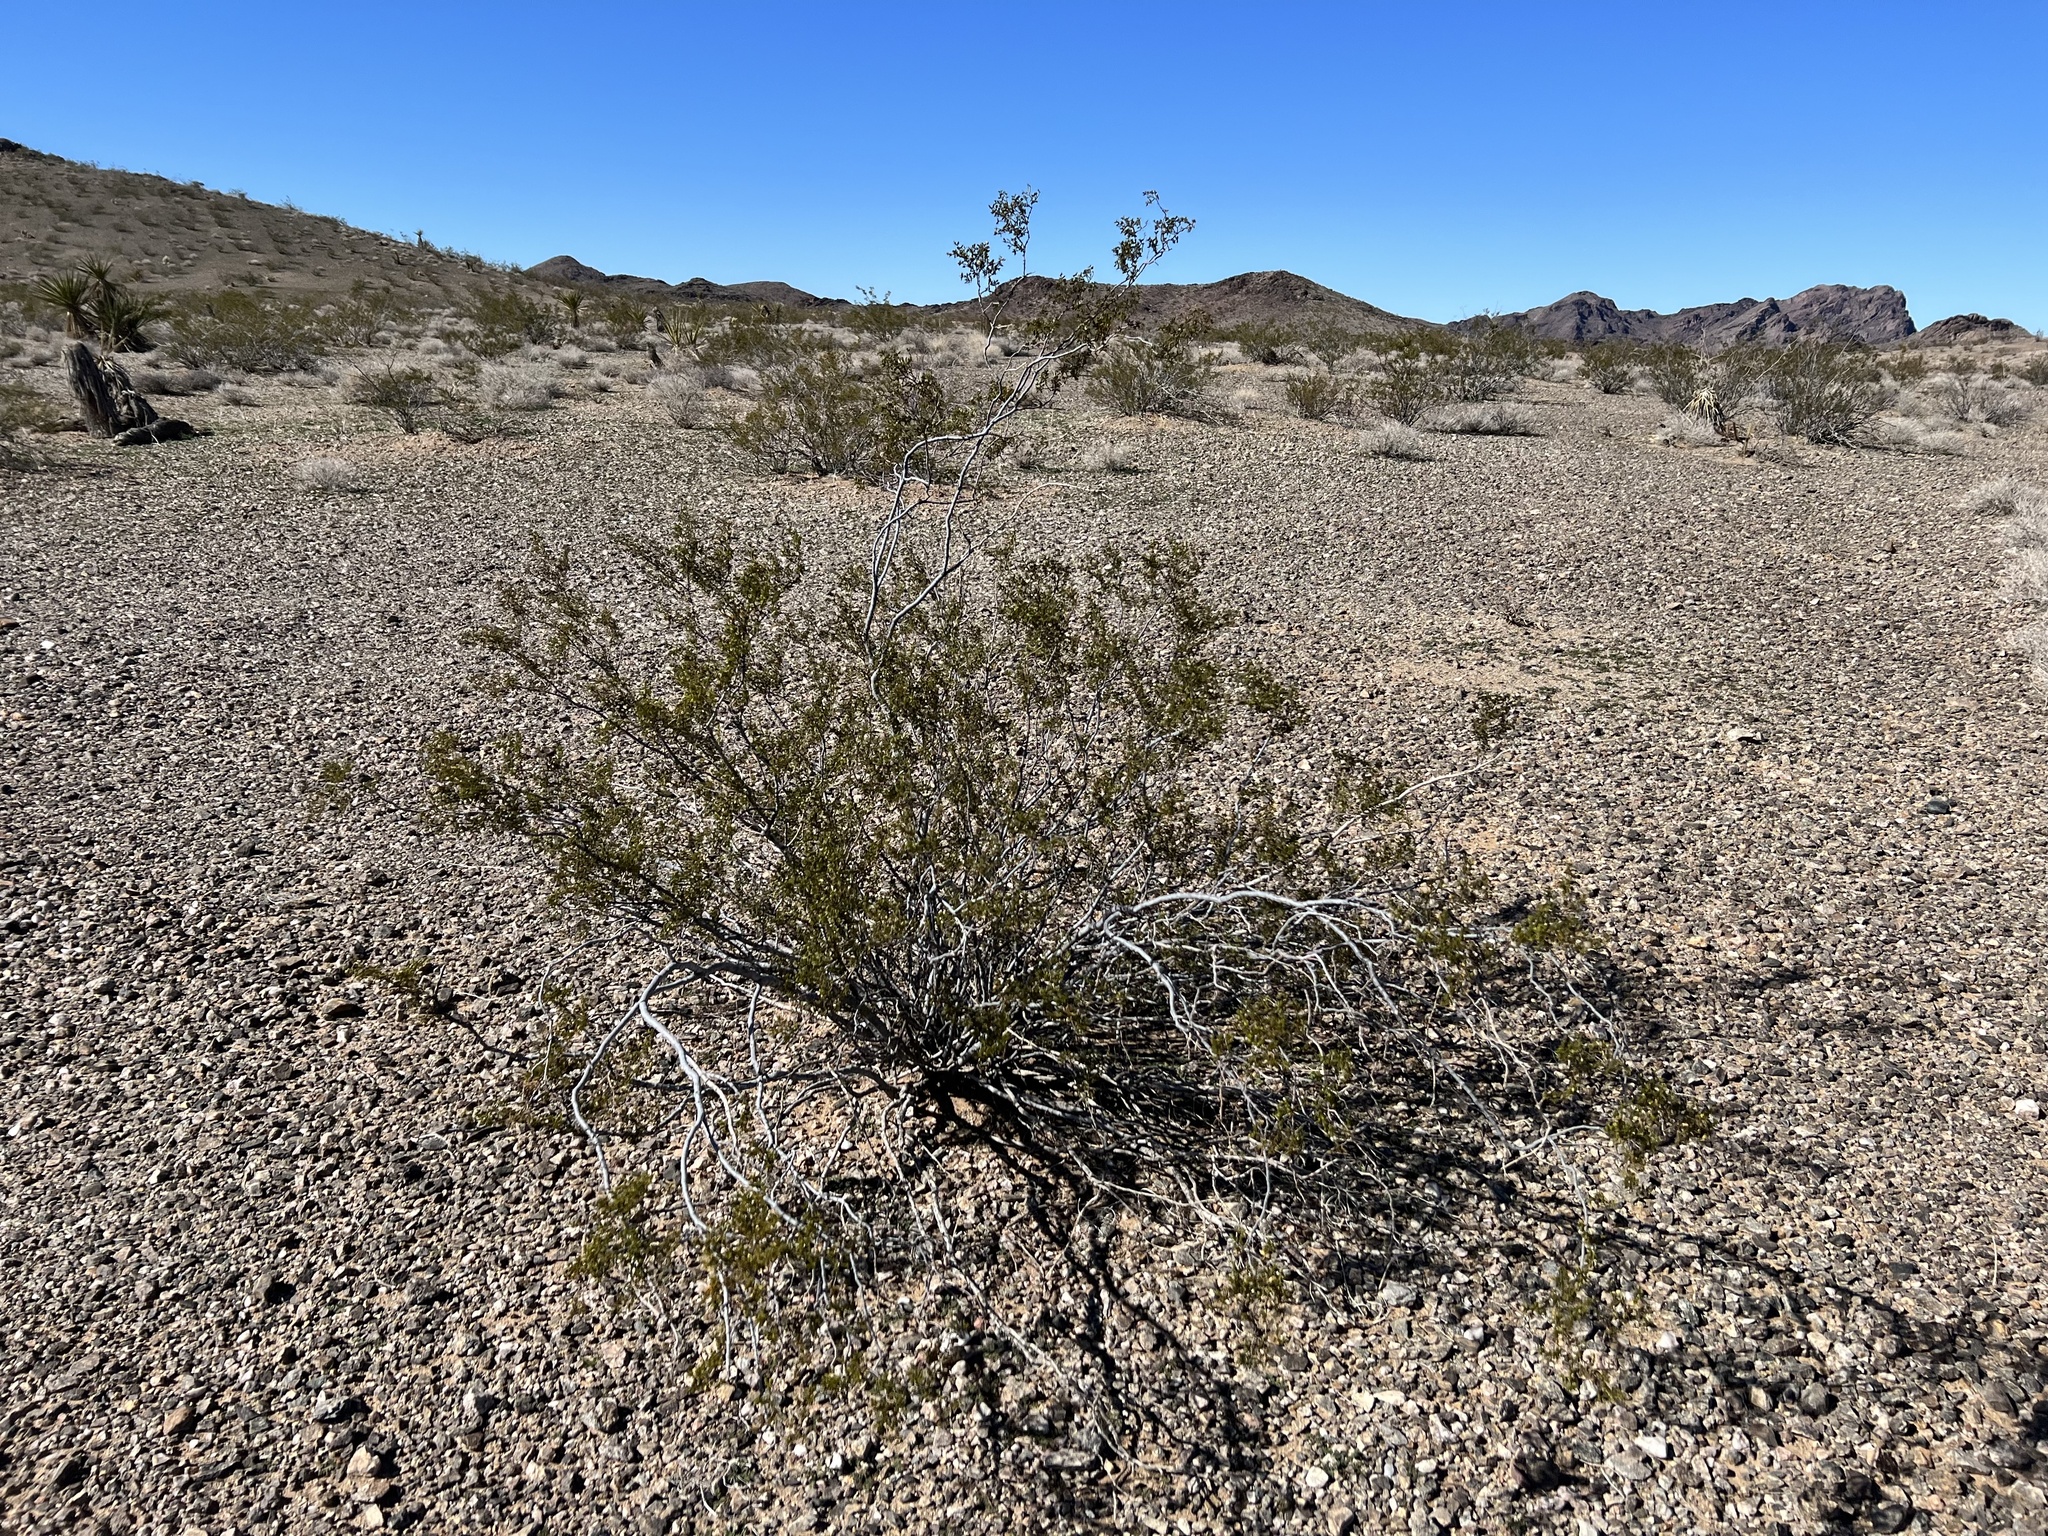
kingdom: Plantae
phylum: Tracheophyta
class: Magnoliopsida
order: Zygophyllales
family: Zygophyllaceae
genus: Larrea
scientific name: Larrea tridentata
